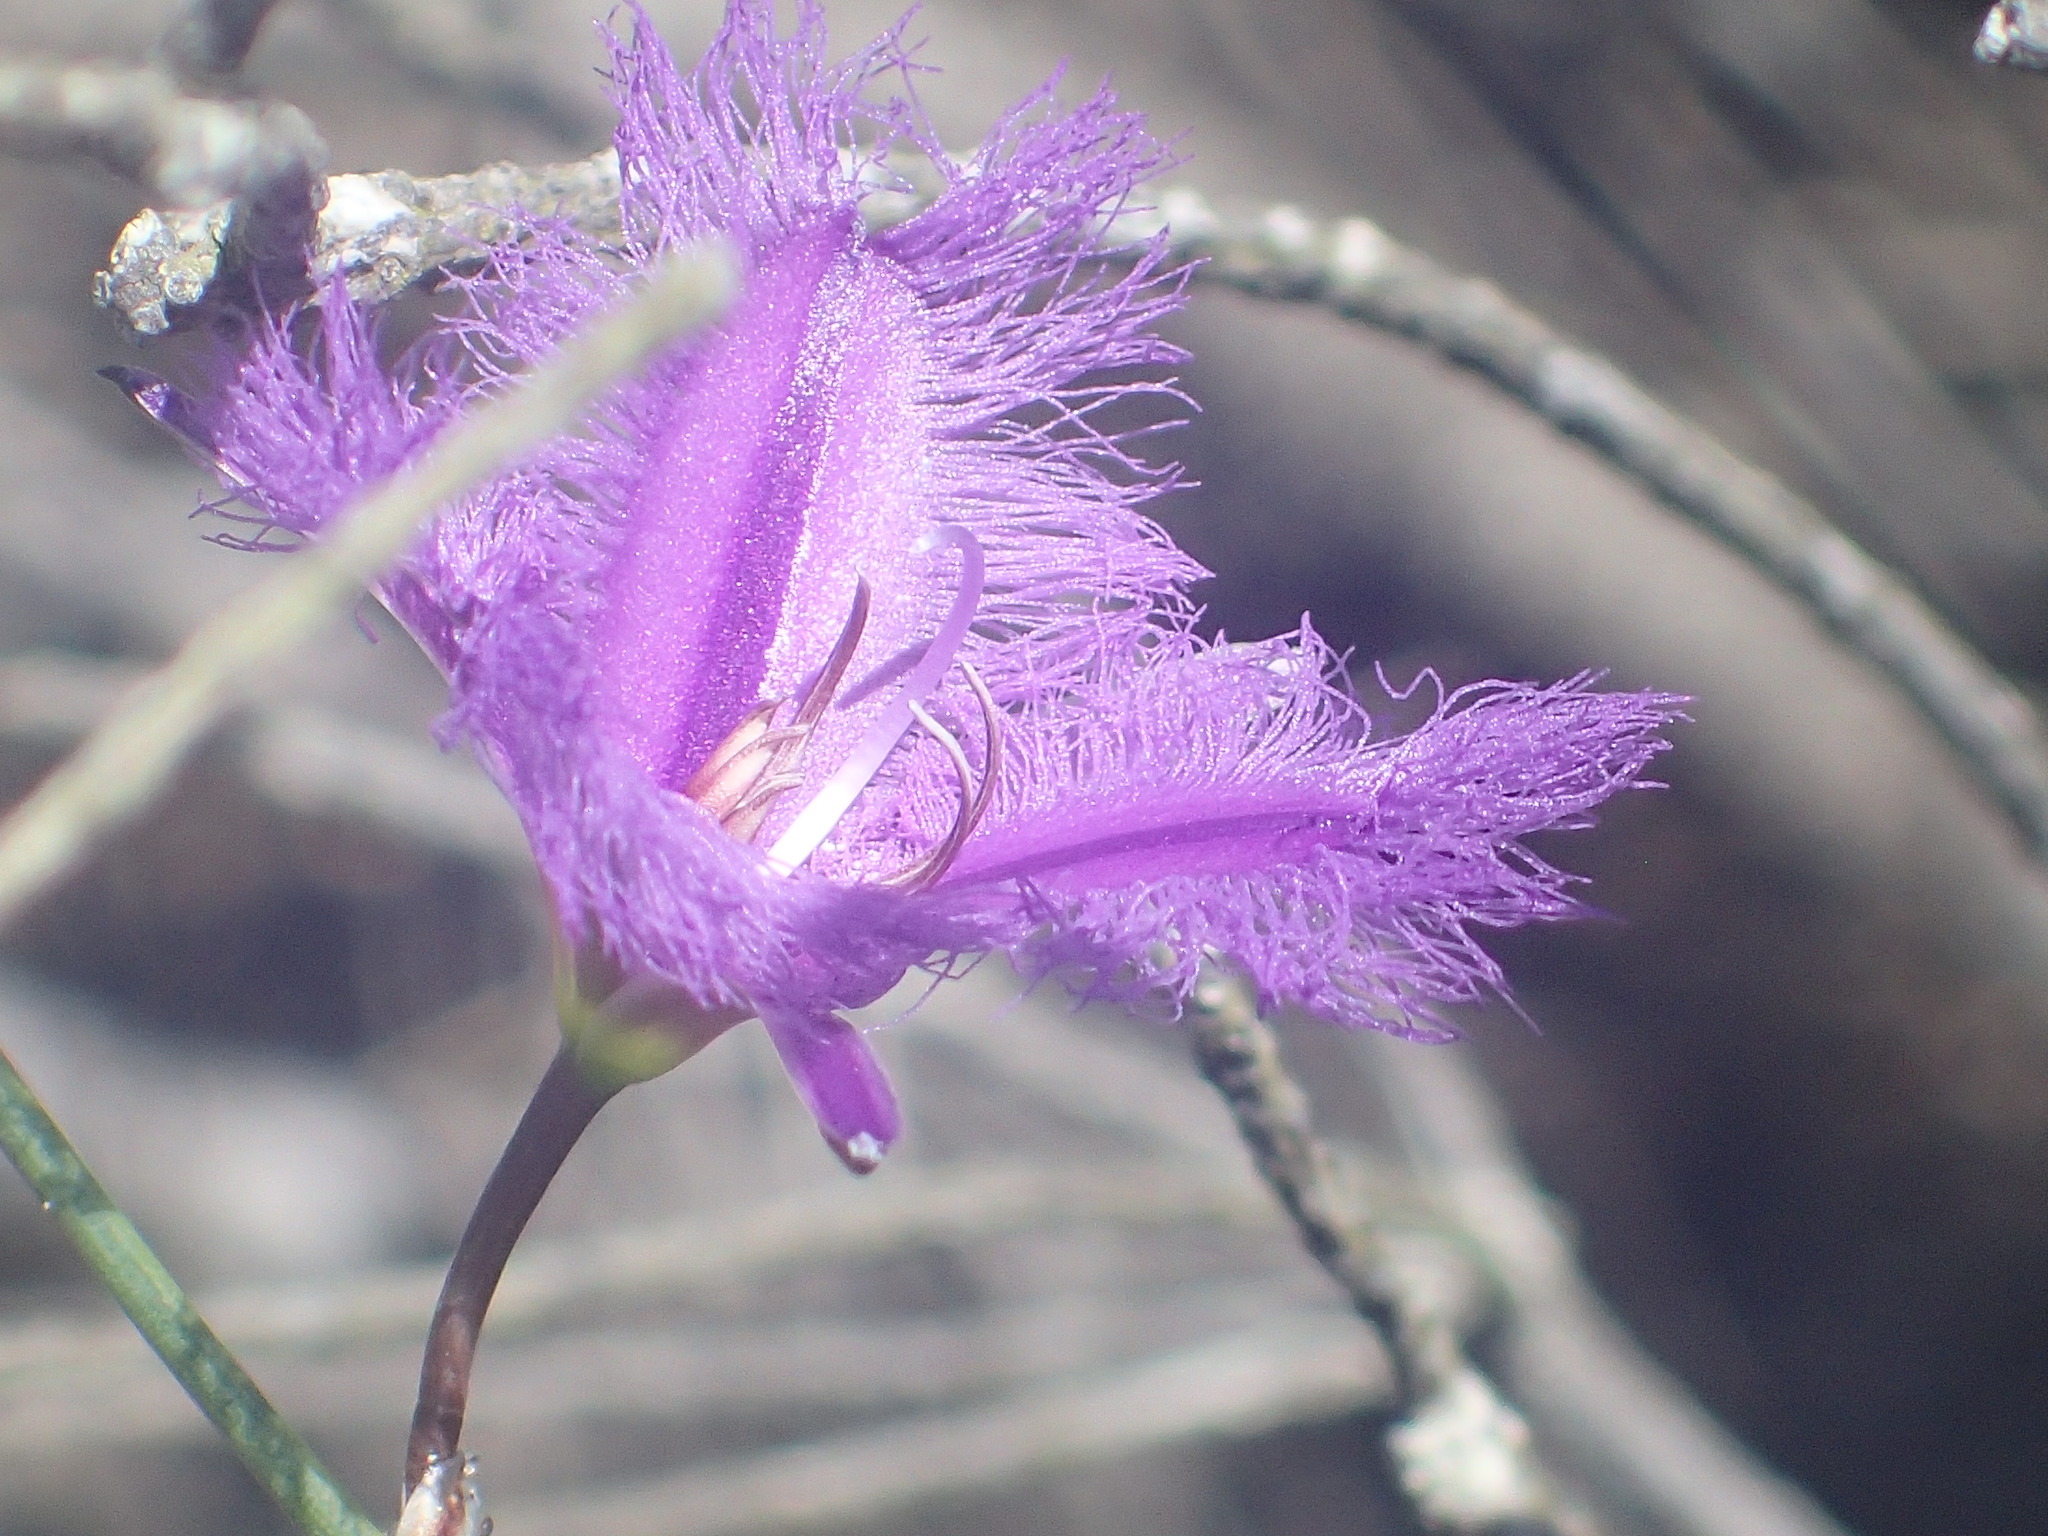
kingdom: Plantae
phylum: Tracheophyta
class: Liliopsida
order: Asparagales
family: Asparagaceae
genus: Thysanotus
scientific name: Thysanotus tuberosus
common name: Common fringed-lily
